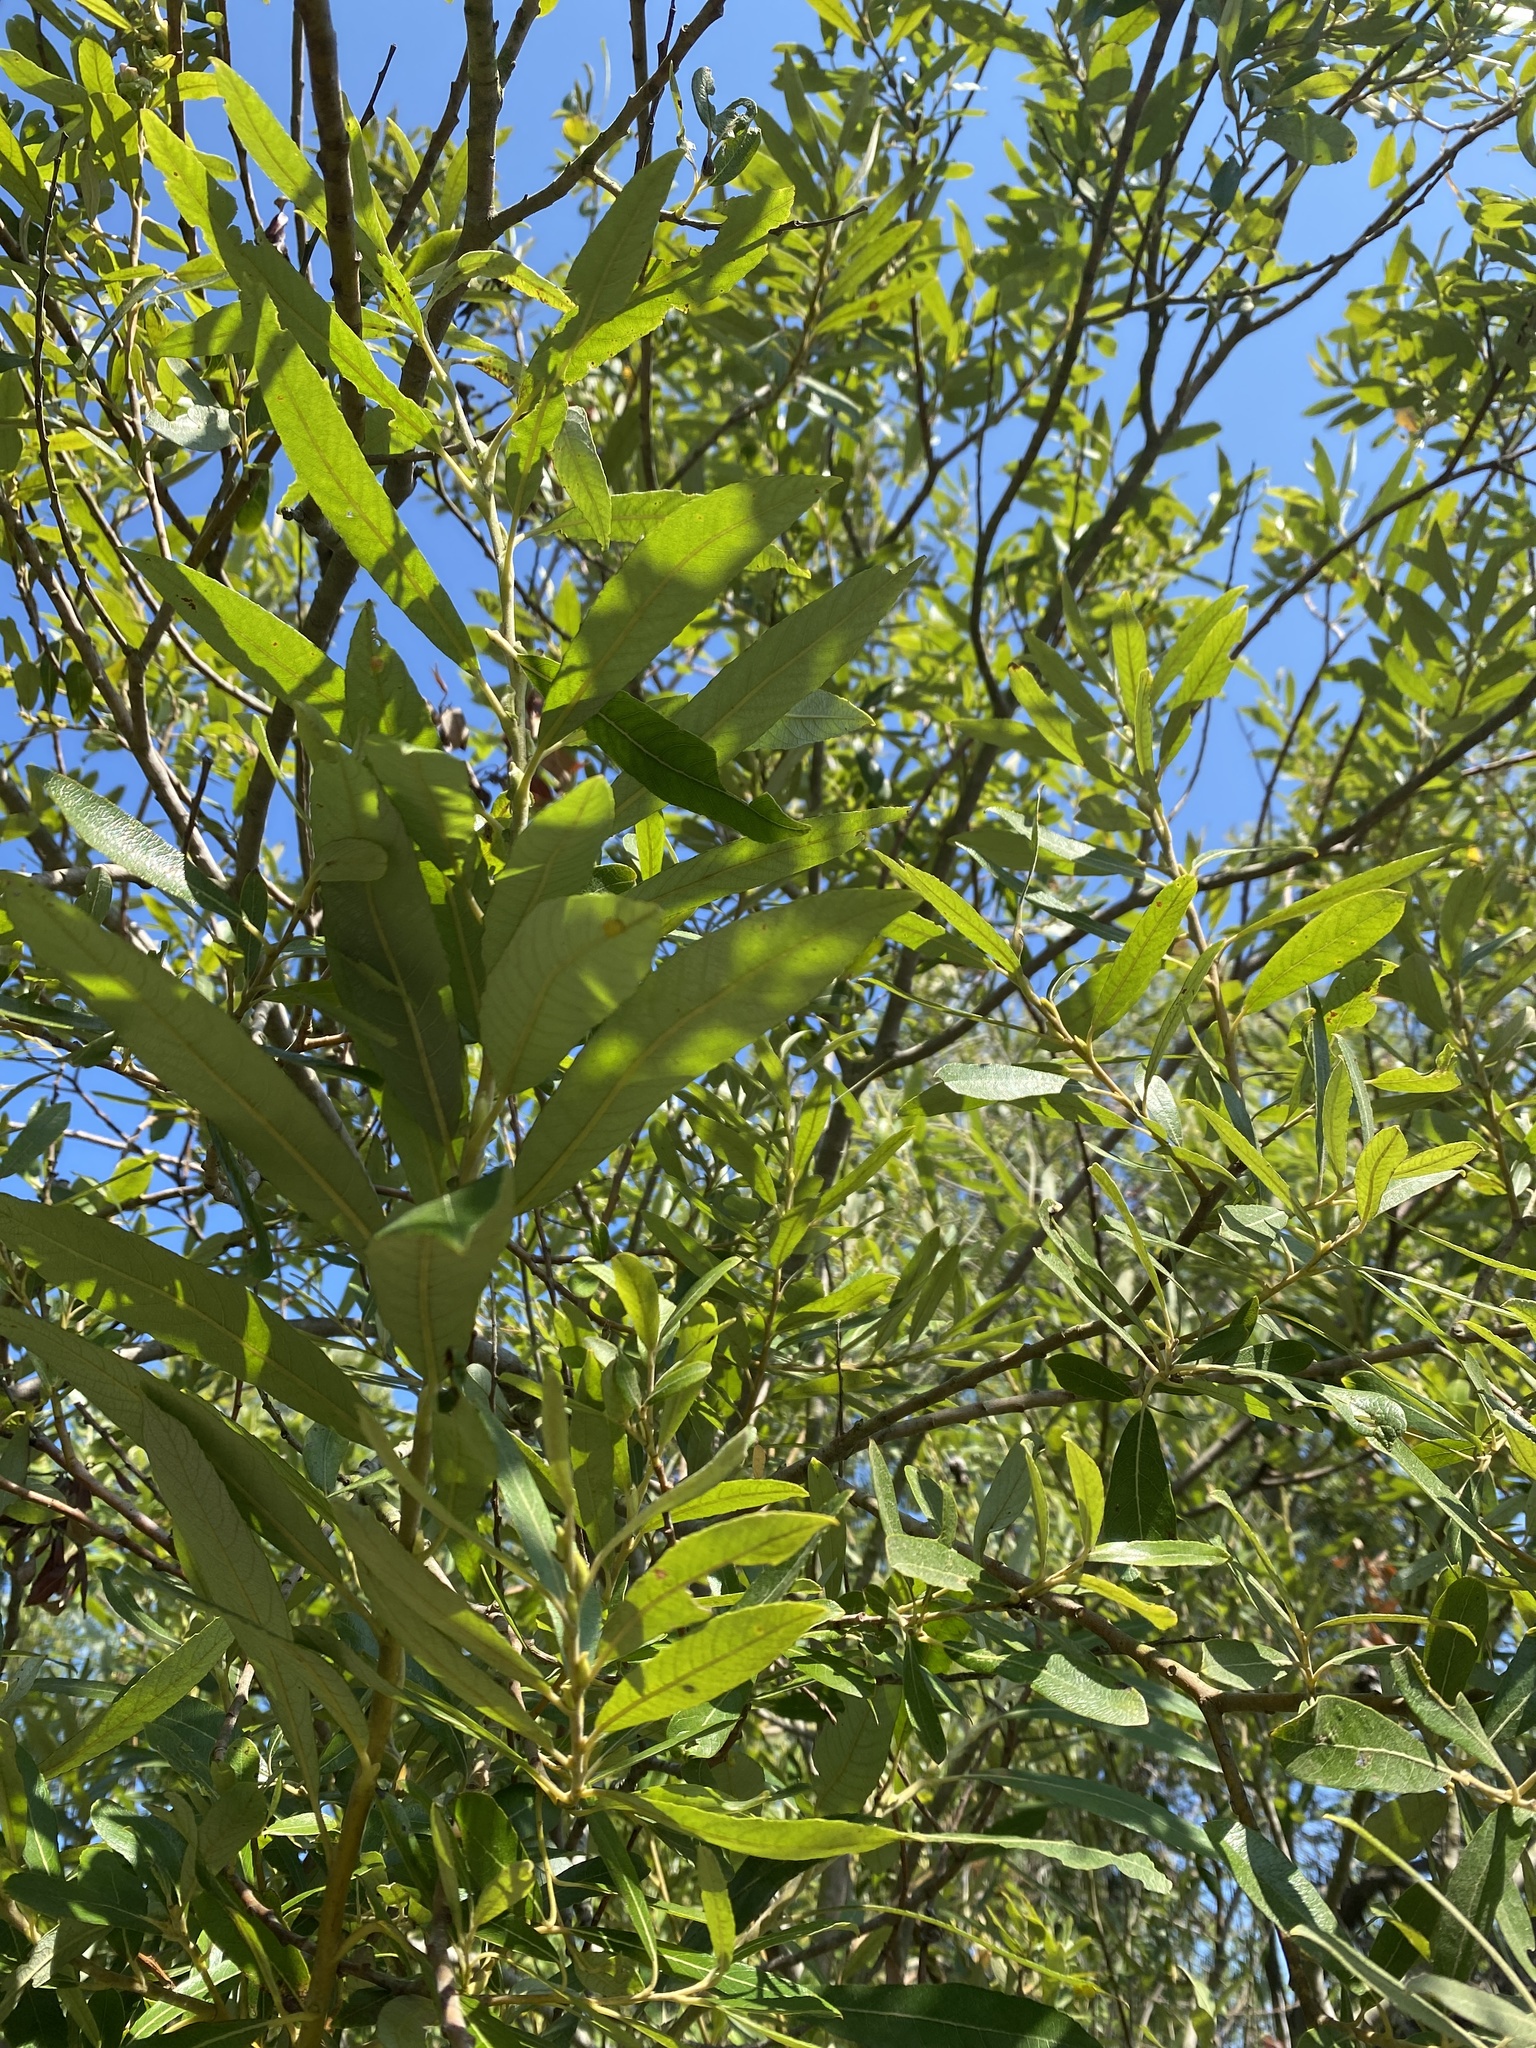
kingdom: Plantae
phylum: Tracheophyta
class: Magnoliopsida
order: Malpighiales
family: Salicaceae
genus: Salix
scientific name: Salix lasiolepis
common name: Arroyo willow
